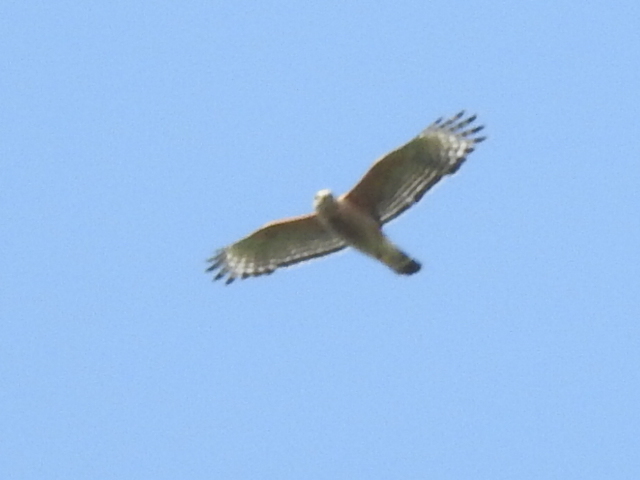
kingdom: Animalia
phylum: Chordata
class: Aves
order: Accipitriformes
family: Accipitridae
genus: Buteo
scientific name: Buteo lineatus
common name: Red-shouldered hawk
